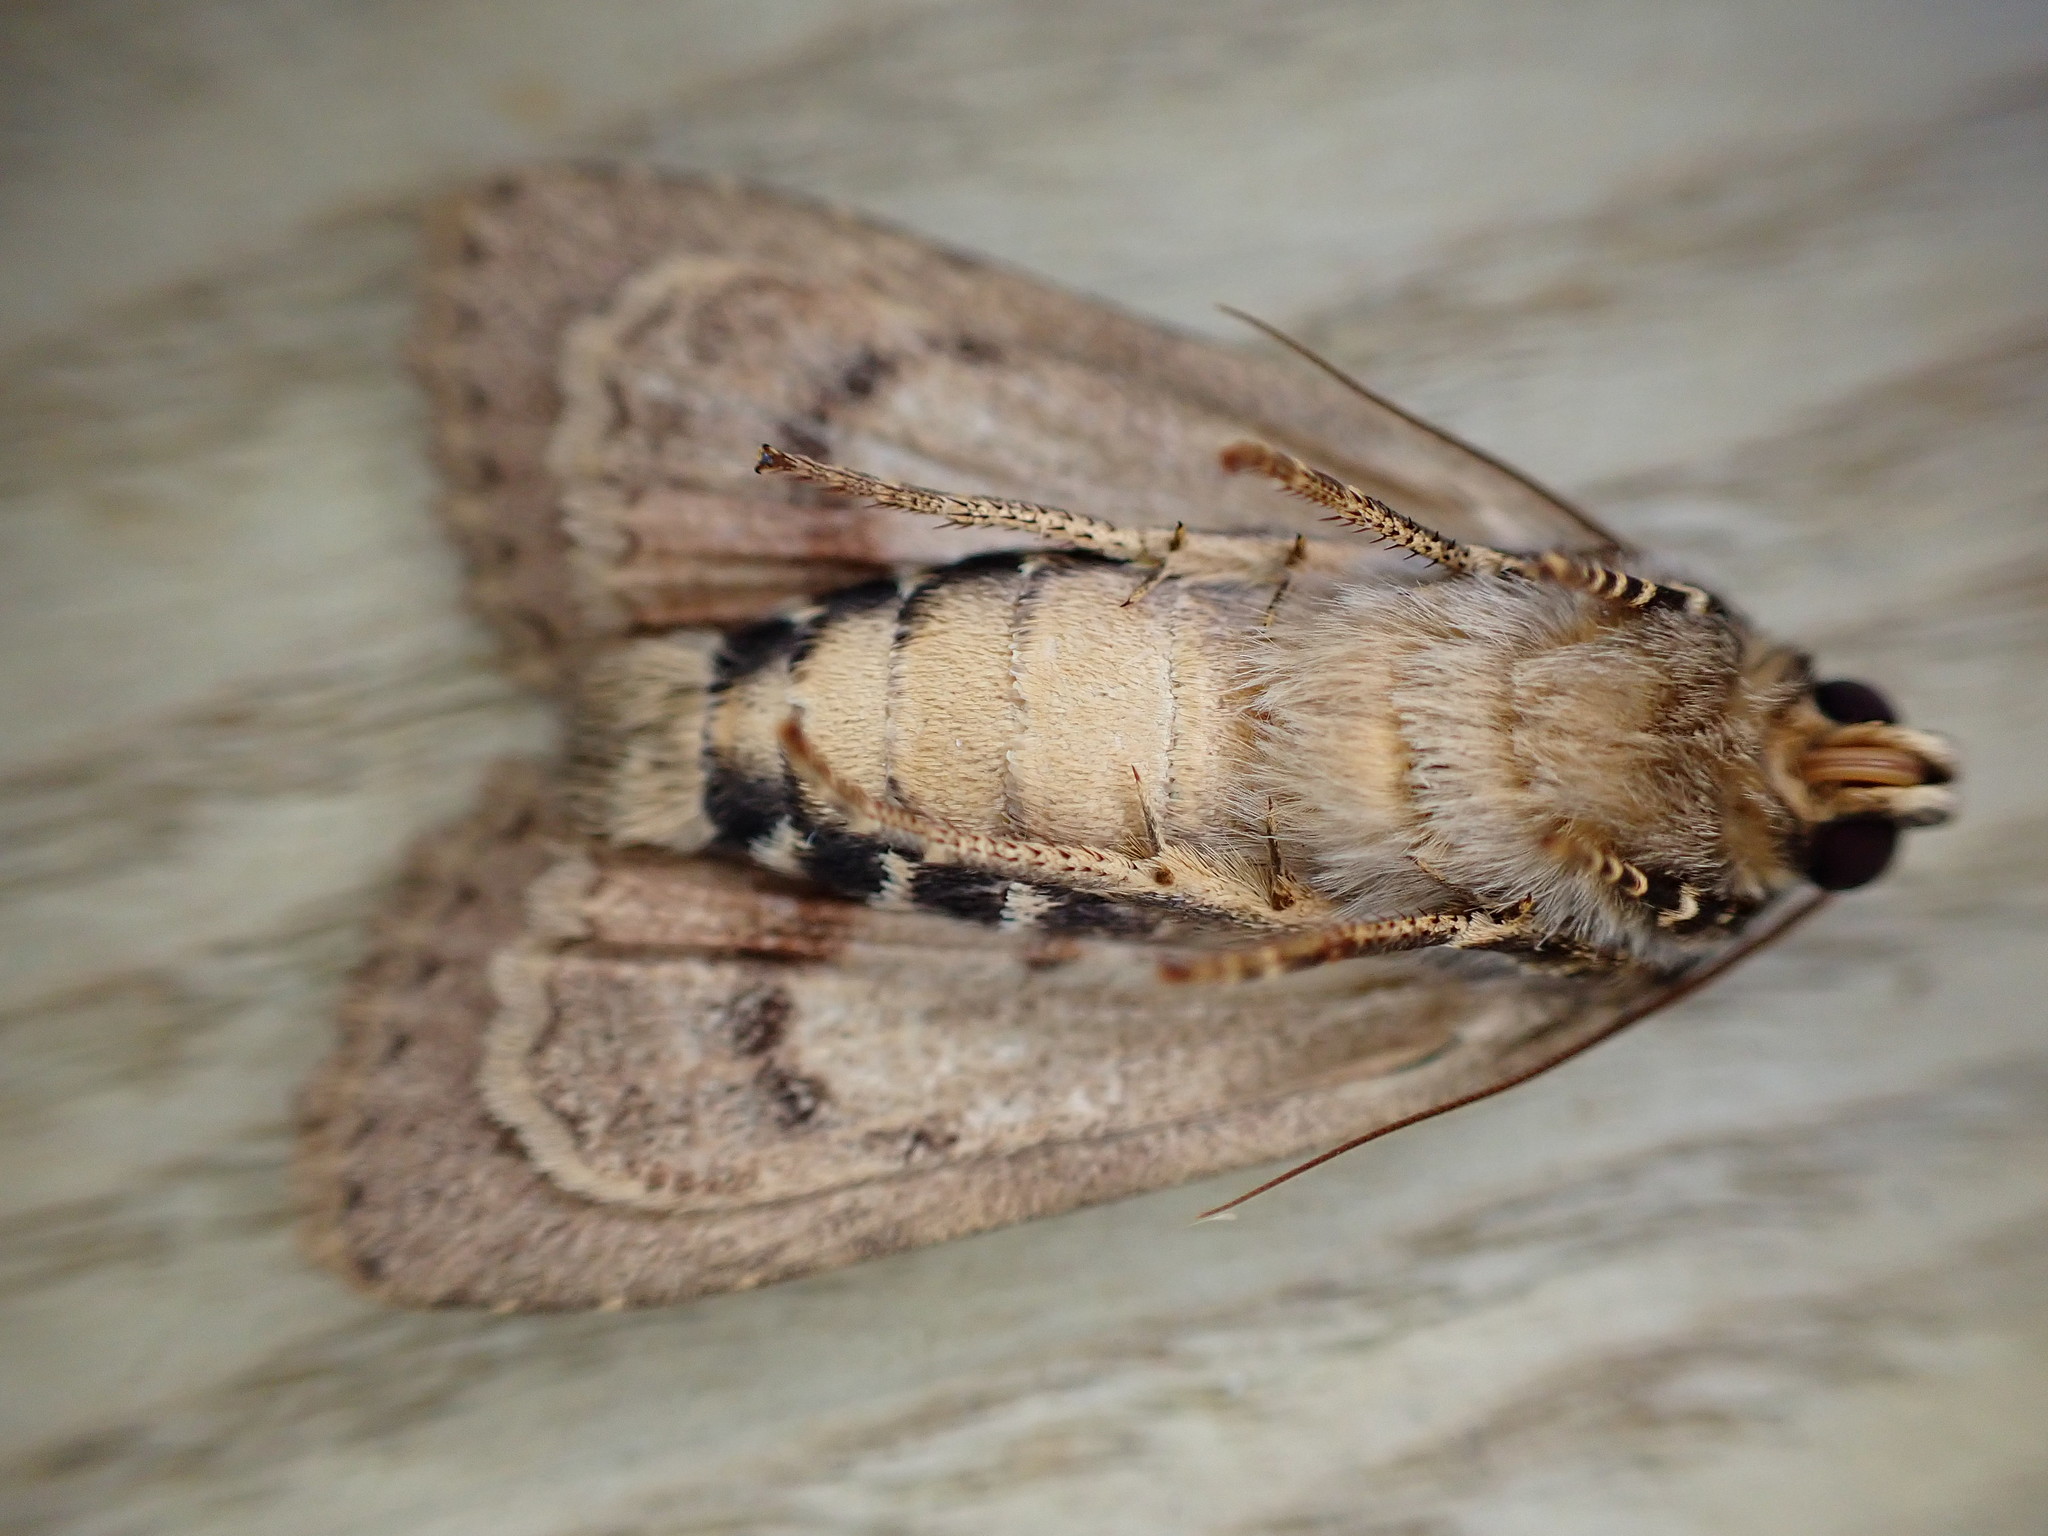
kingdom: Animalia
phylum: Arthropoda
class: Insecta
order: Lepidoptera
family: Noctuidae
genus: Amphipyra
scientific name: Amphipyra pyramidea
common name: Copper underwing
